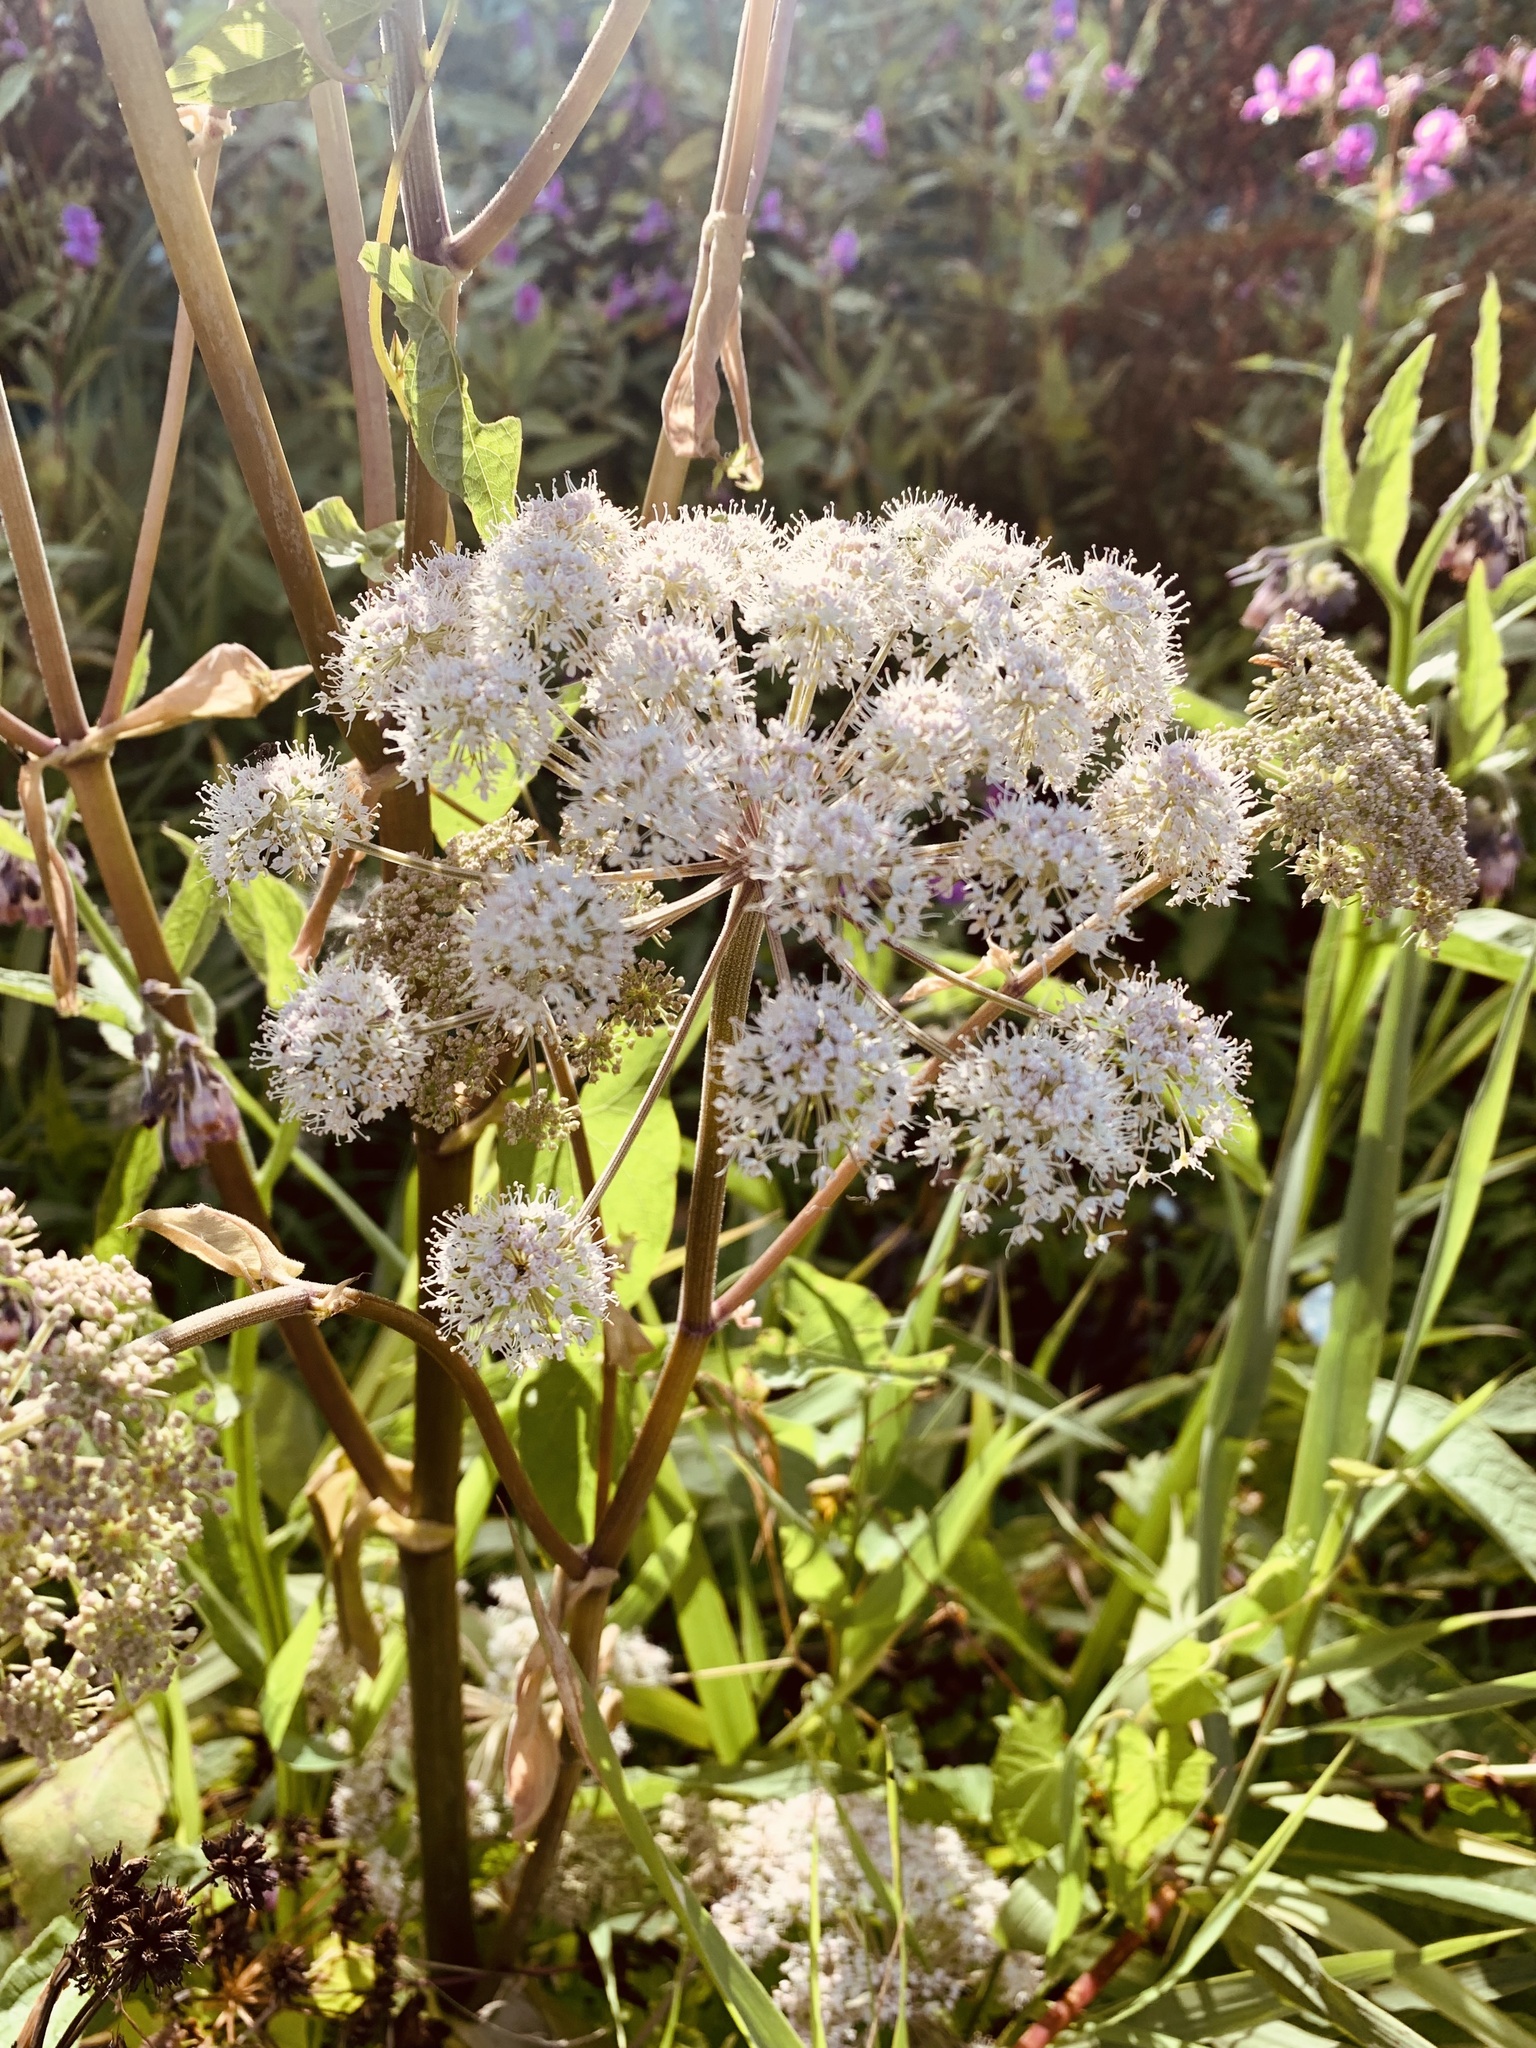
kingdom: Plantae
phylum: Tracheophyta
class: Magnoliopsida
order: Apiales
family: Apiaceae
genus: Angelica
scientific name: Angelica sylvestris
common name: Wild angelica
